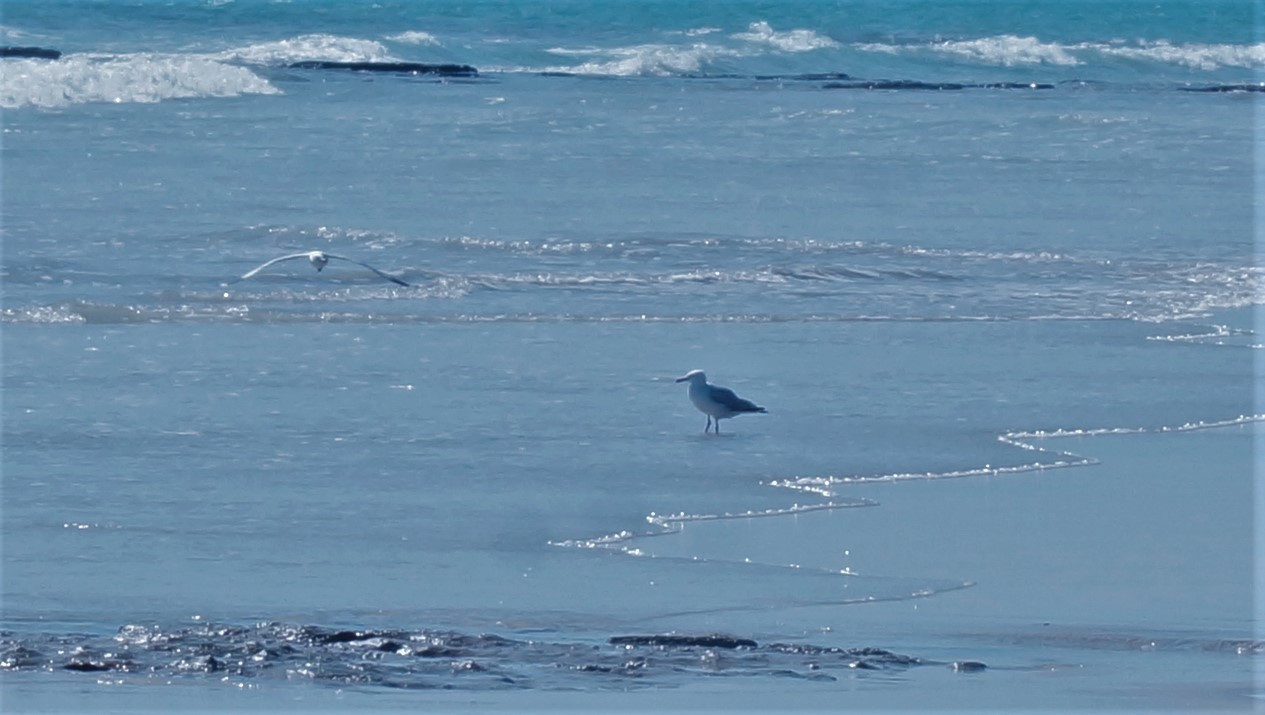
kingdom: Animalia
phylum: Chordata
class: Aves
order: Charadriiformes
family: Laridae
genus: Chroicocephalus
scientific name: Chroicocephalus novaehollandiae
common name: Silver gull
